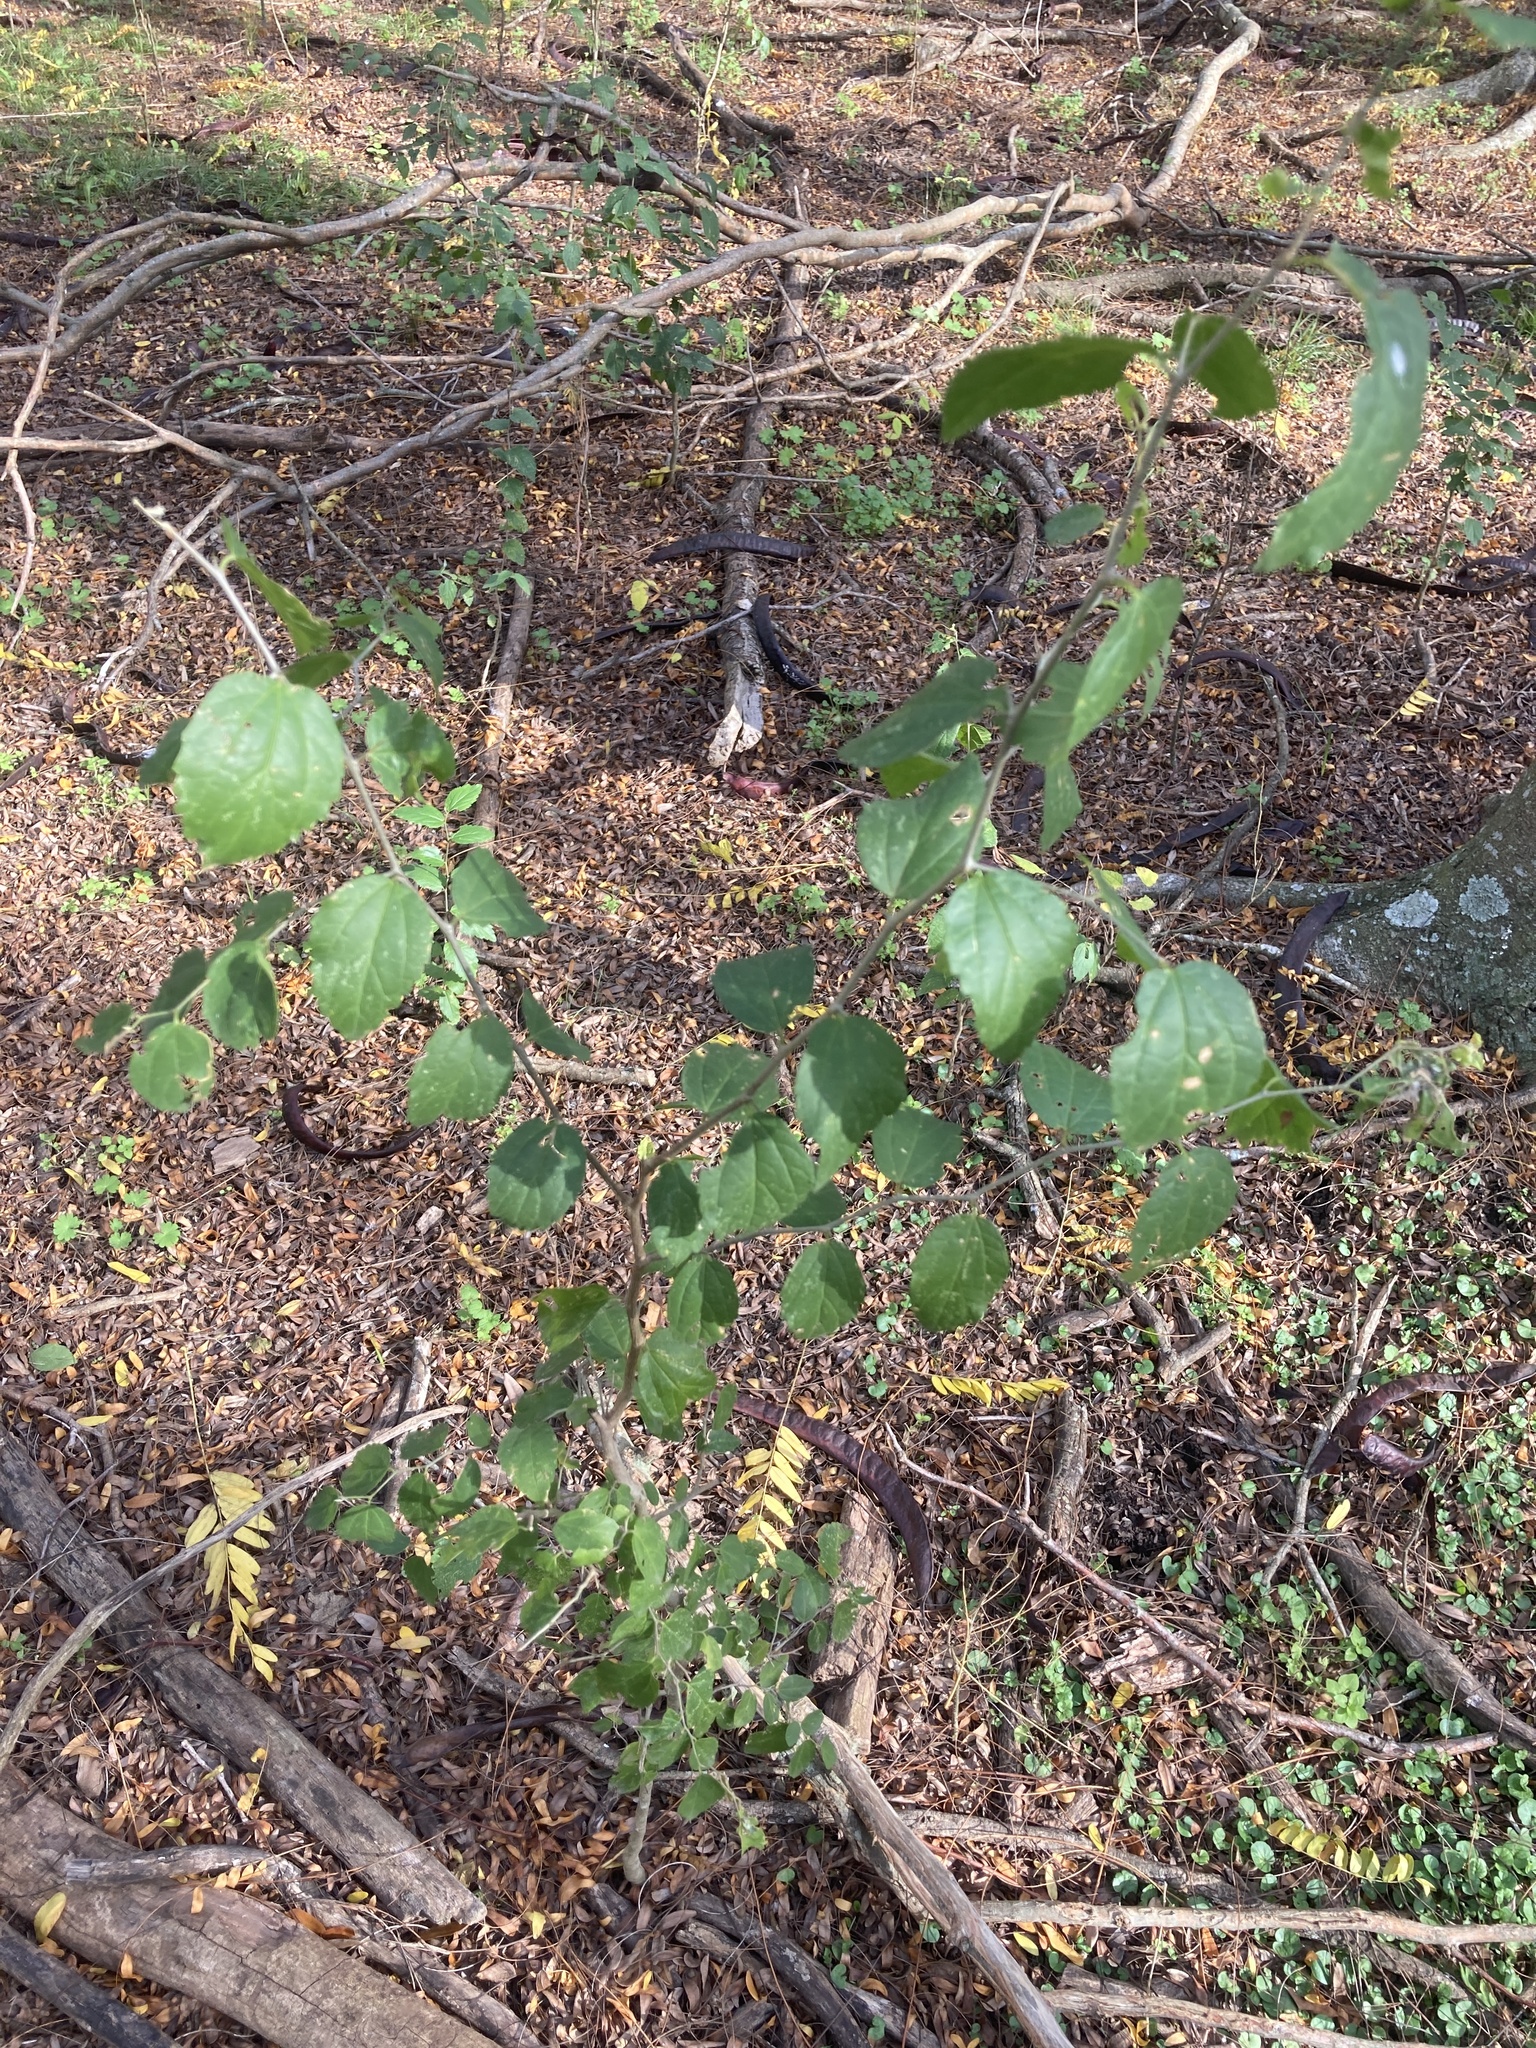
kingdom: Plantae
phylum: Tracheophyta
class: Magnoliopsida
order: Rosales
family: Cannabaceae
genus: Celtis
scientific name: Celtis tala
